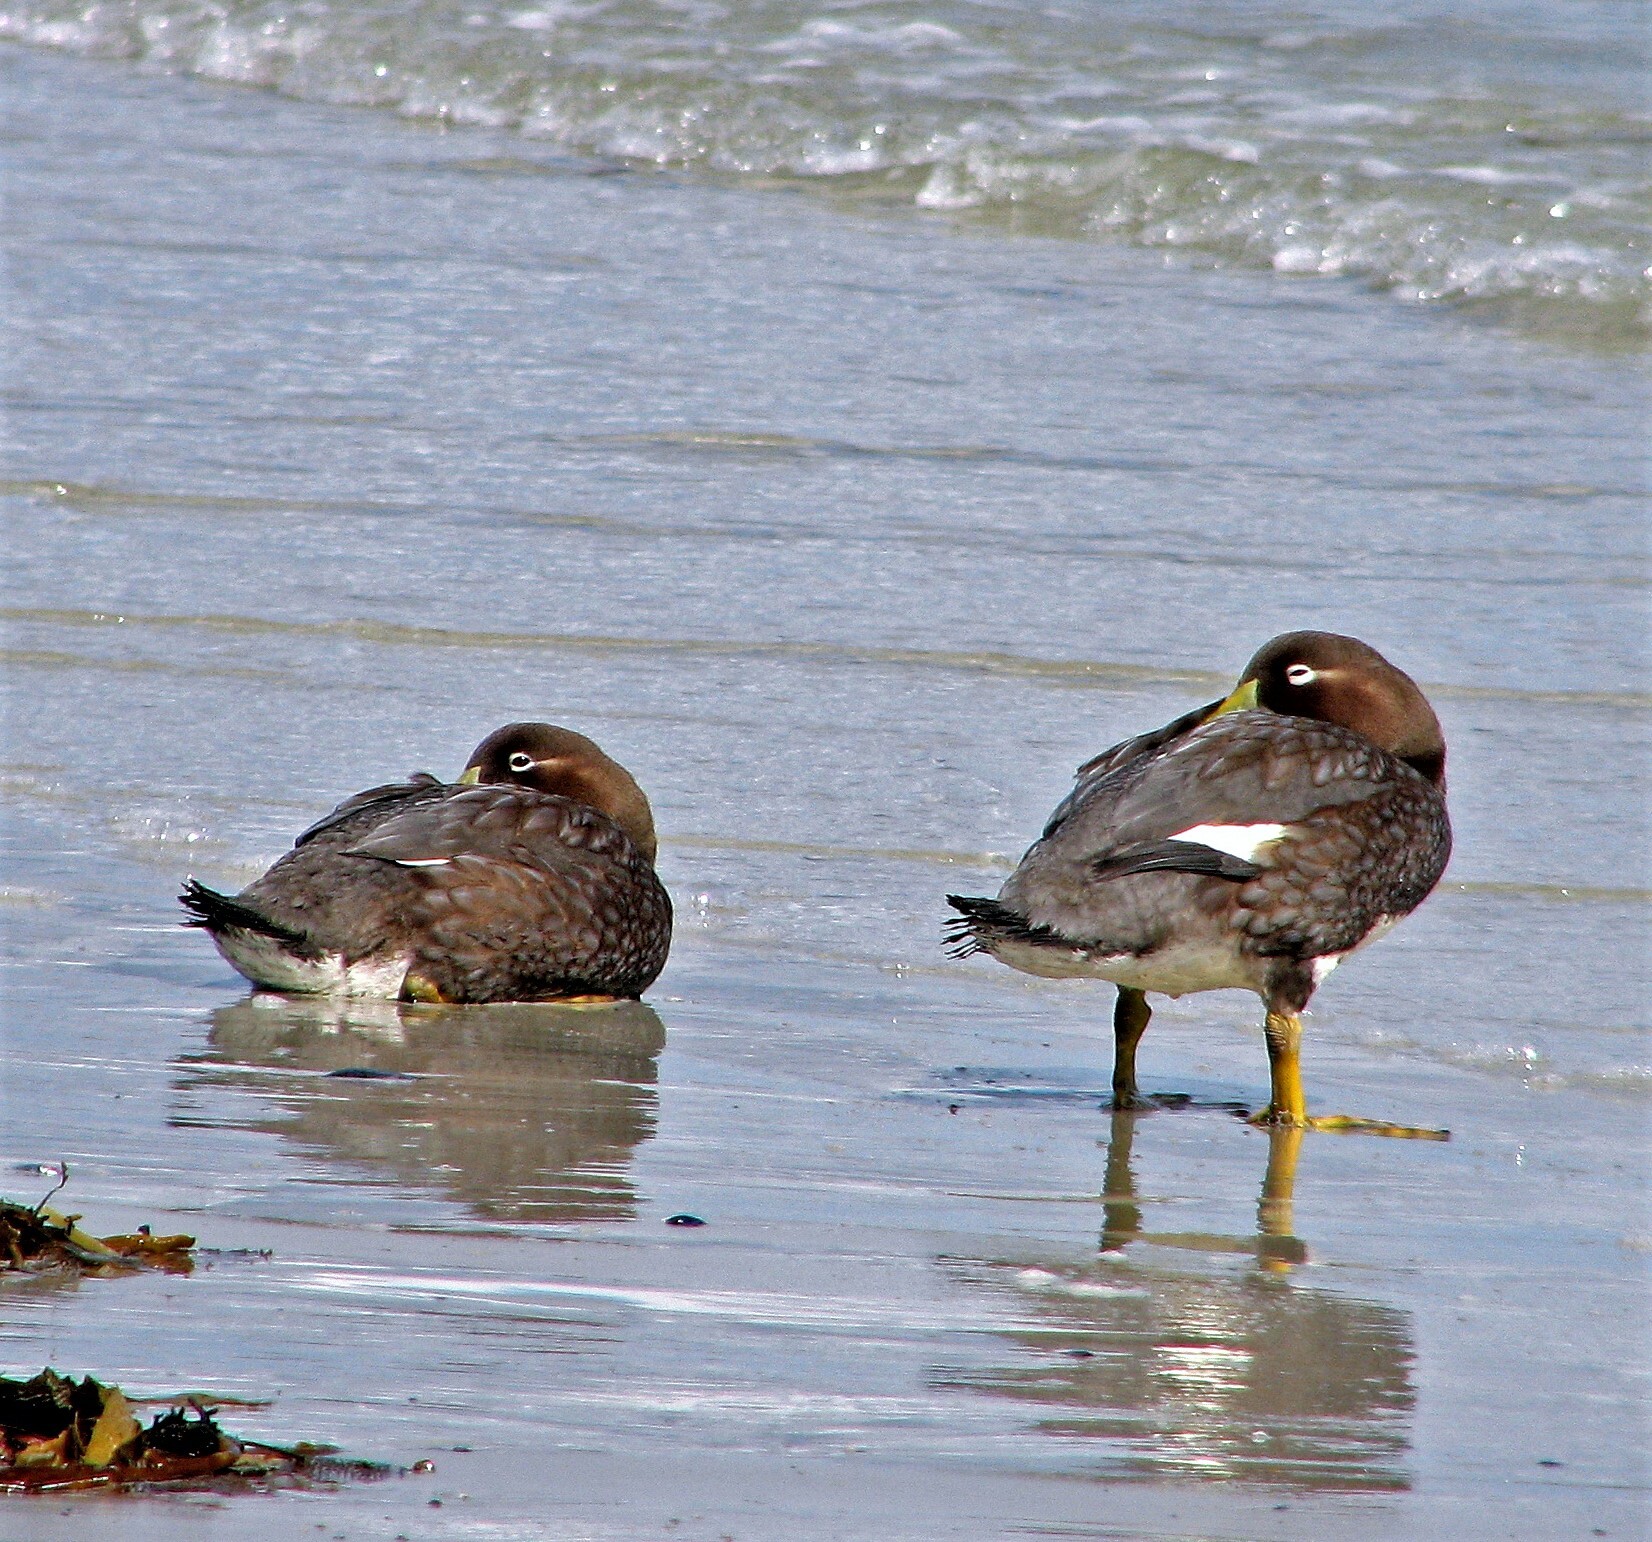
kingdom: Animalia
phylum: Chordata
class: Aves
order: Anseriformes
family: Anatidae
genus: Tachyeres
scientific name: Tachyeres brachypterus
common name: Falkland steamer duck
